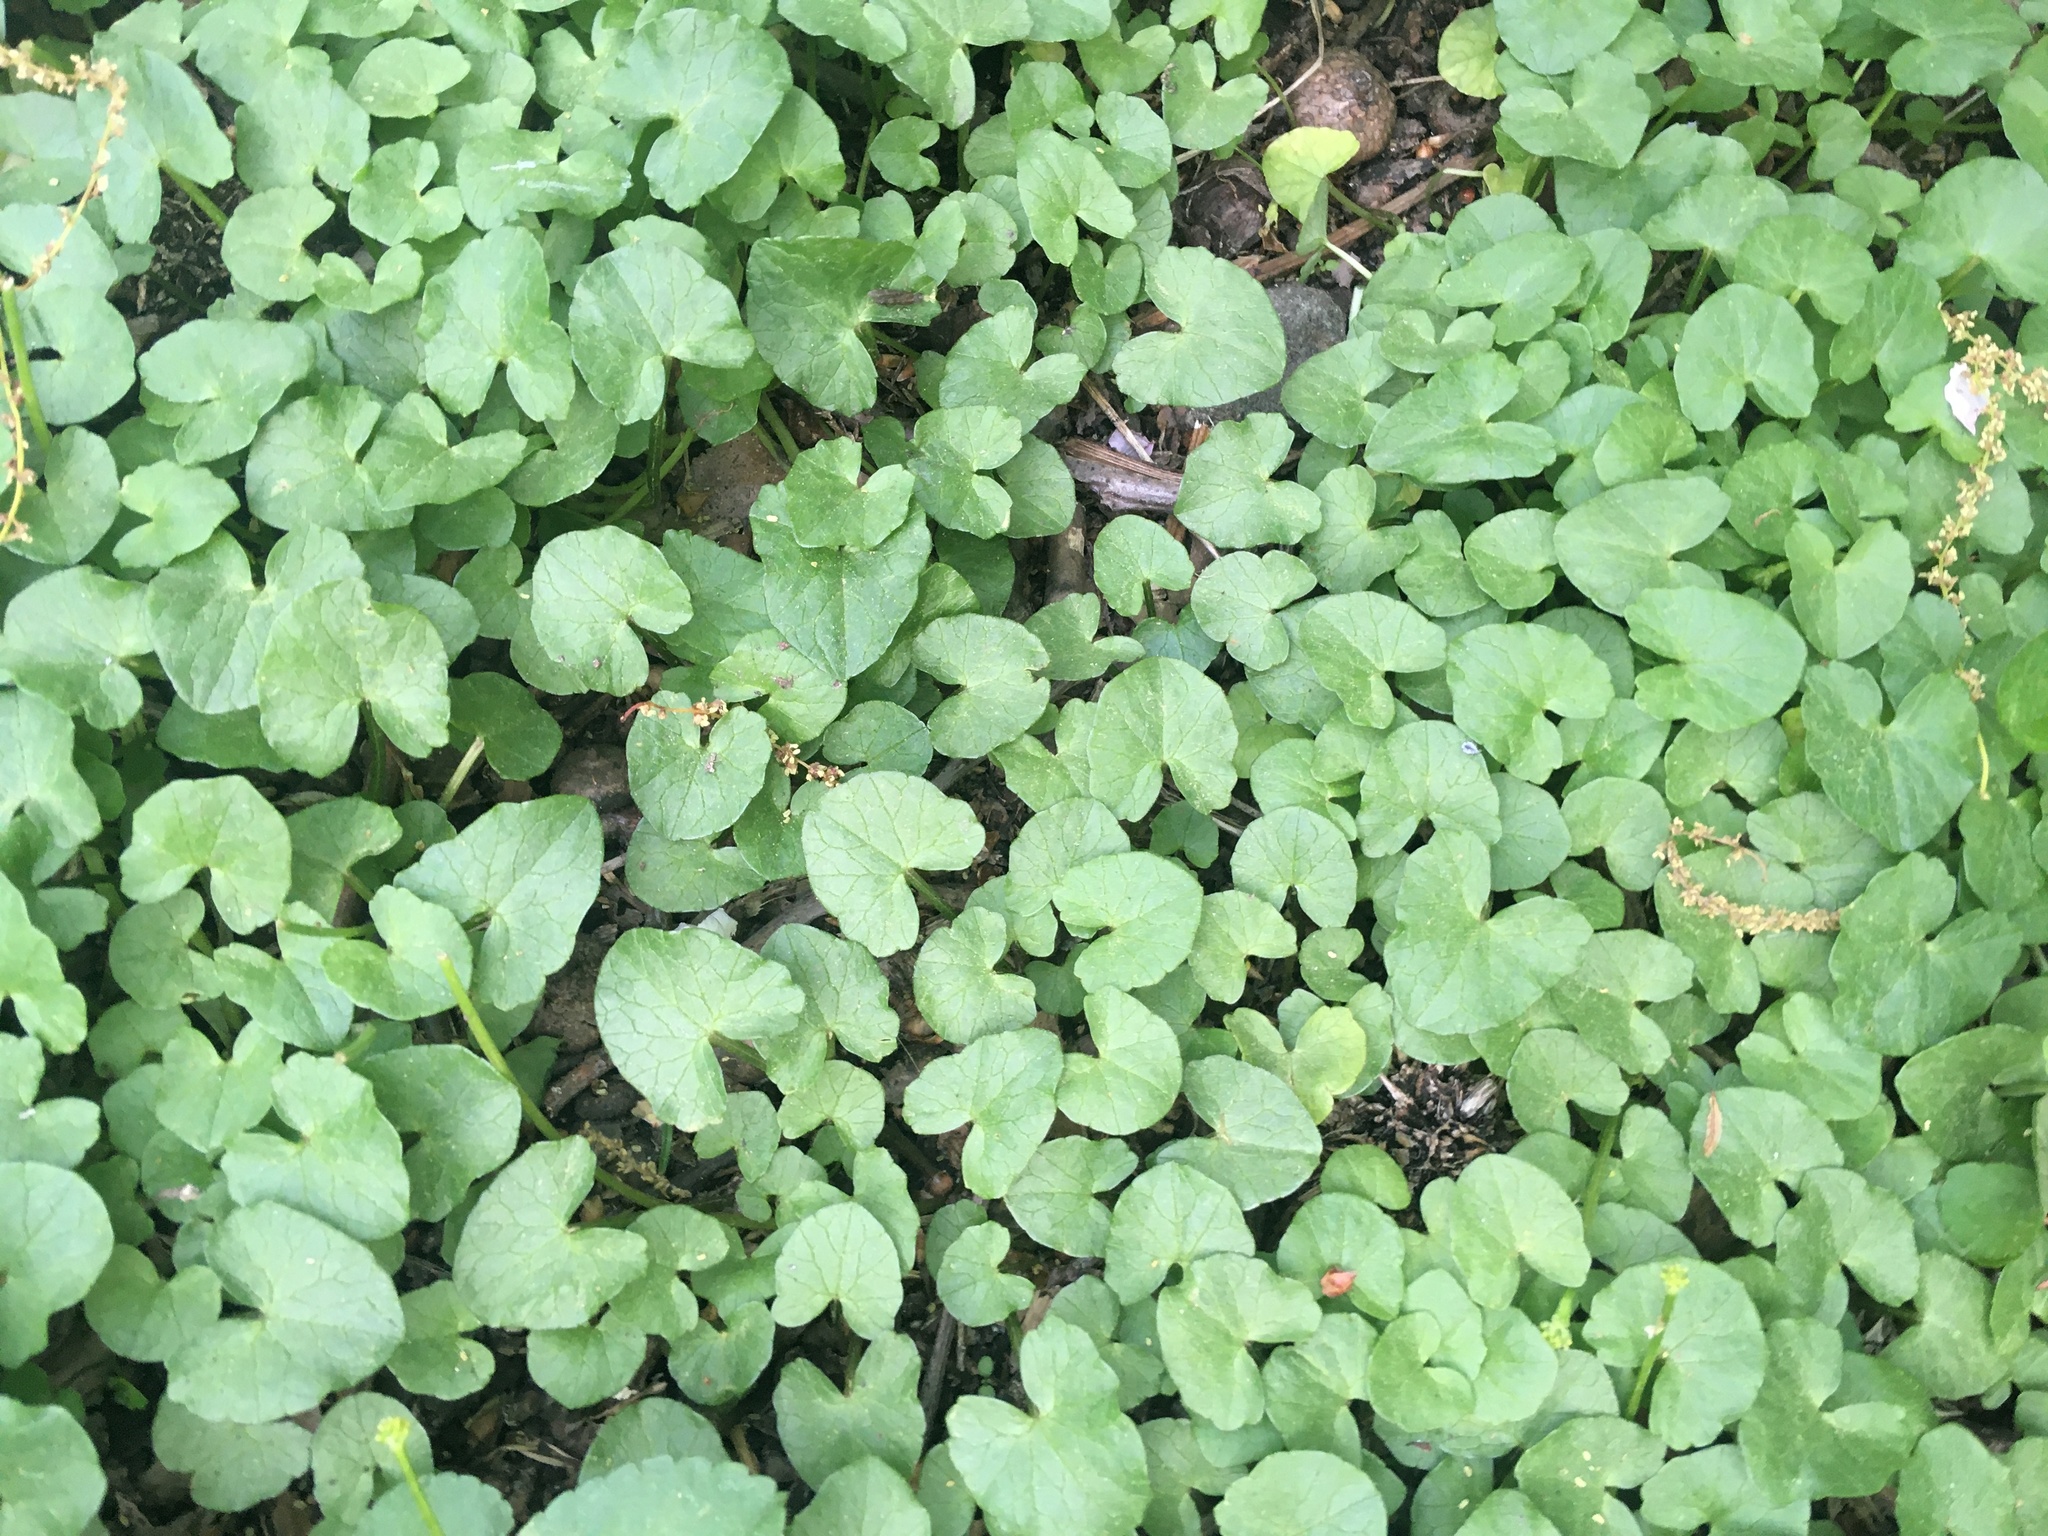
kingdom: Plantae
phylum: Tracheophyta
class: Magnoliopsida
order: Ranunculales
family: Ranunculaceae
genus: Ficaria
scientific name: Ficaria verna
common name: Lesser celandine
